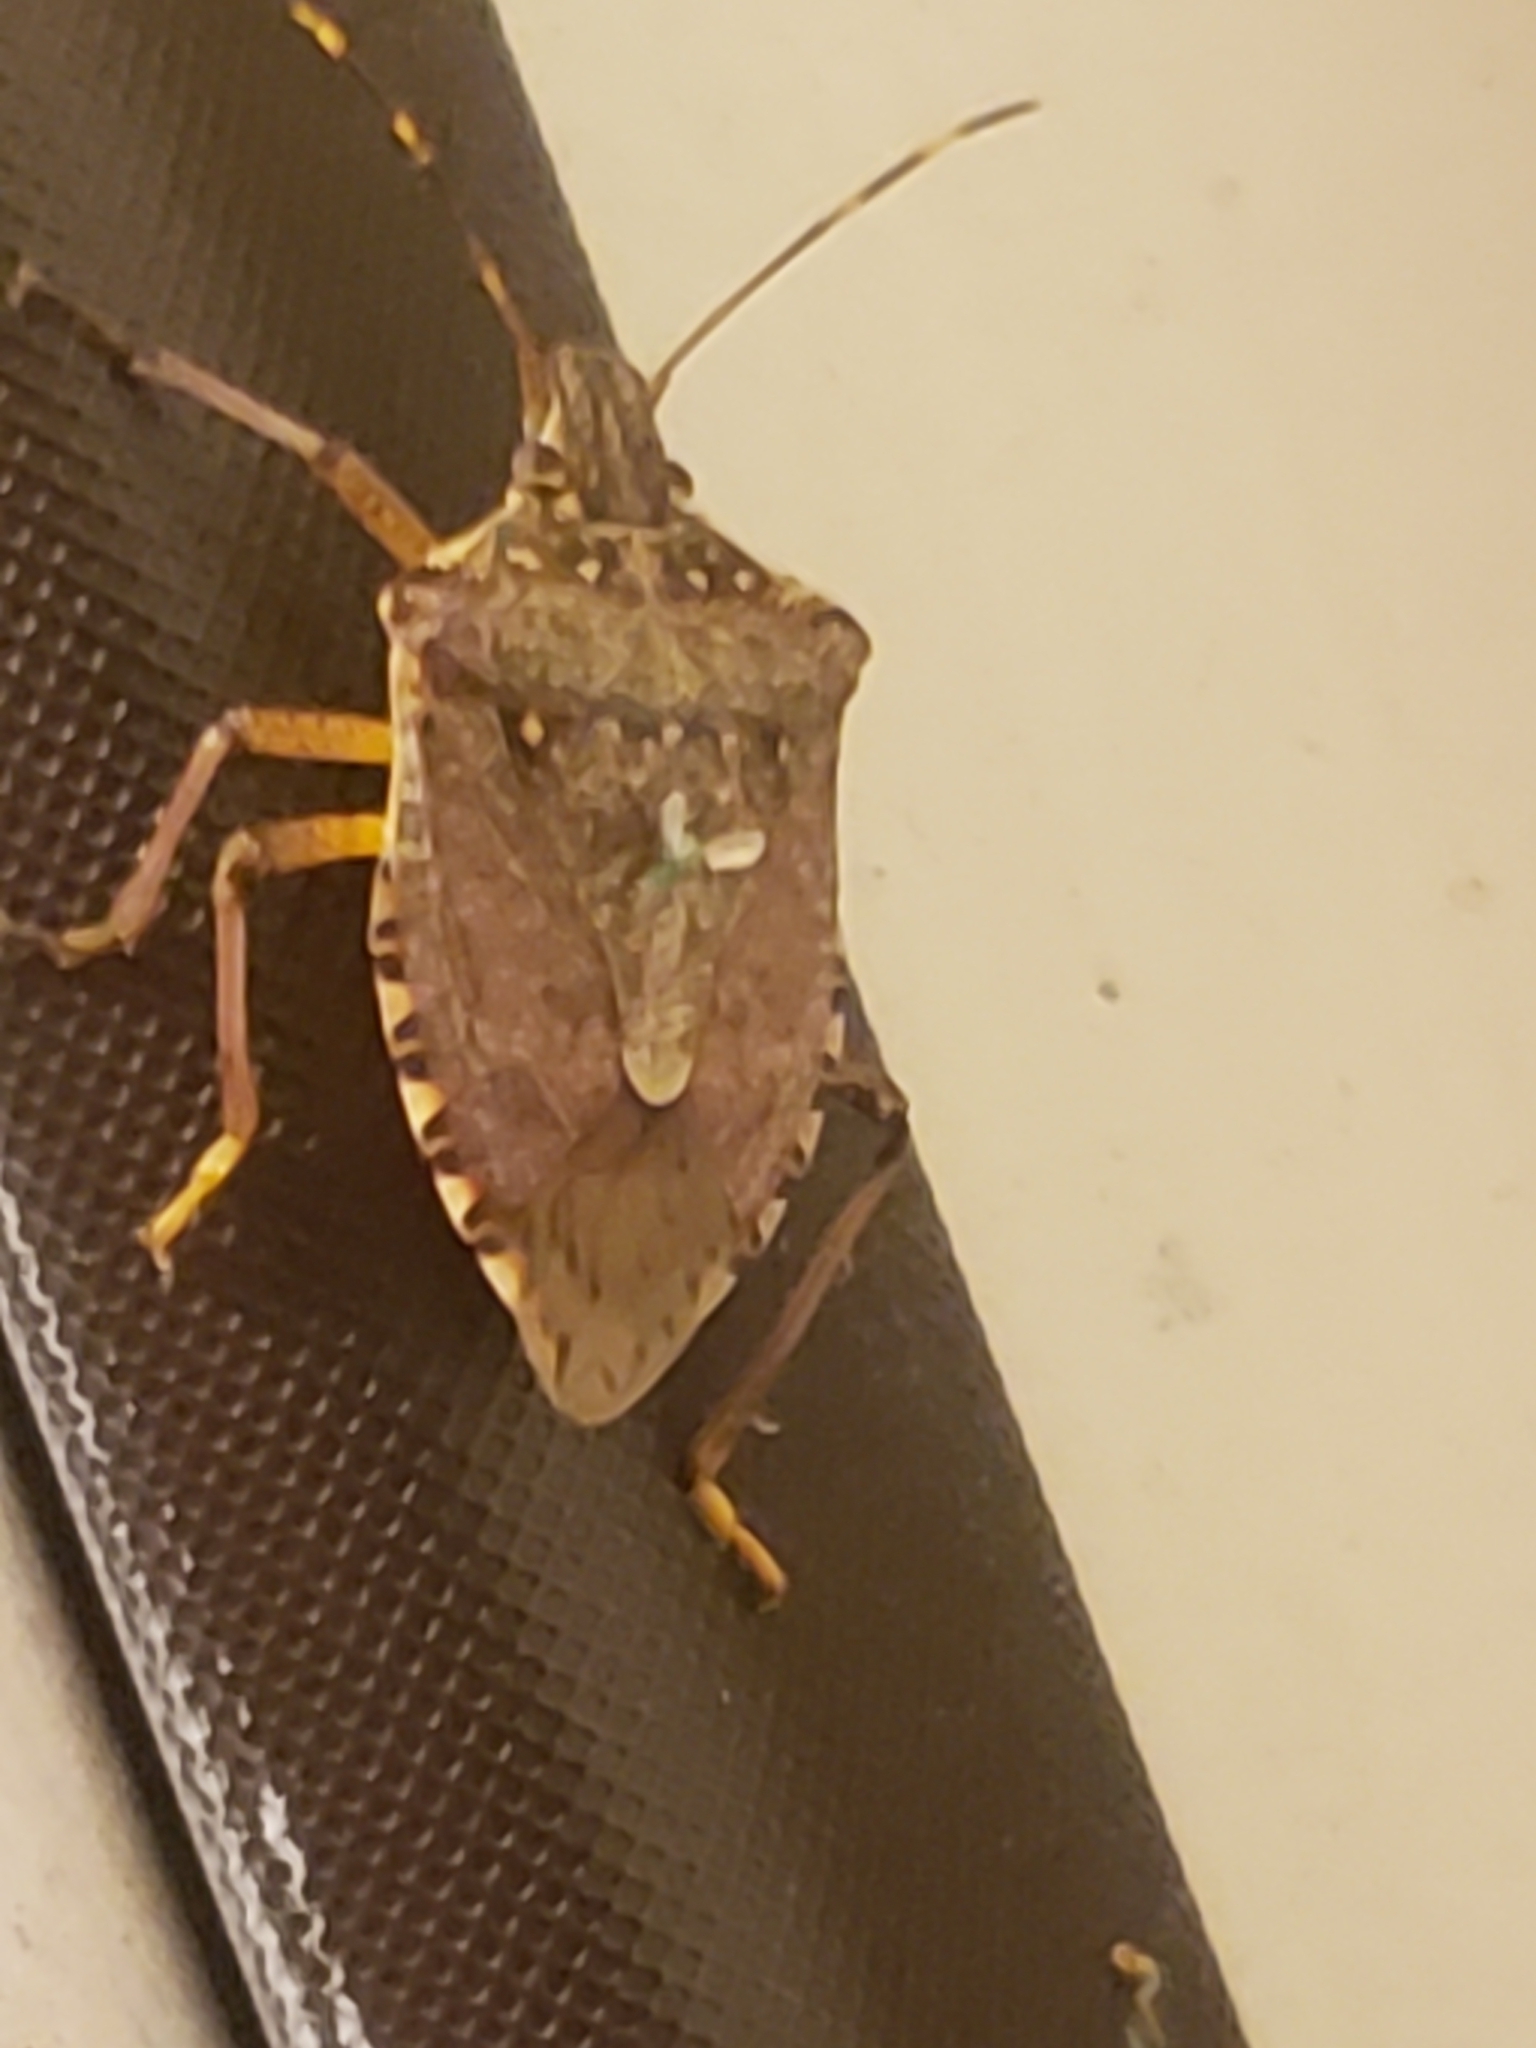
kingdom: Animalia
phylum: Arthropoda
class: Insecta
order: Hemiptera
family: Pentatomidae
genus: Halyomorpha
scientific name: Halyomorpha halys
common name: Brown marmorated stink bug
